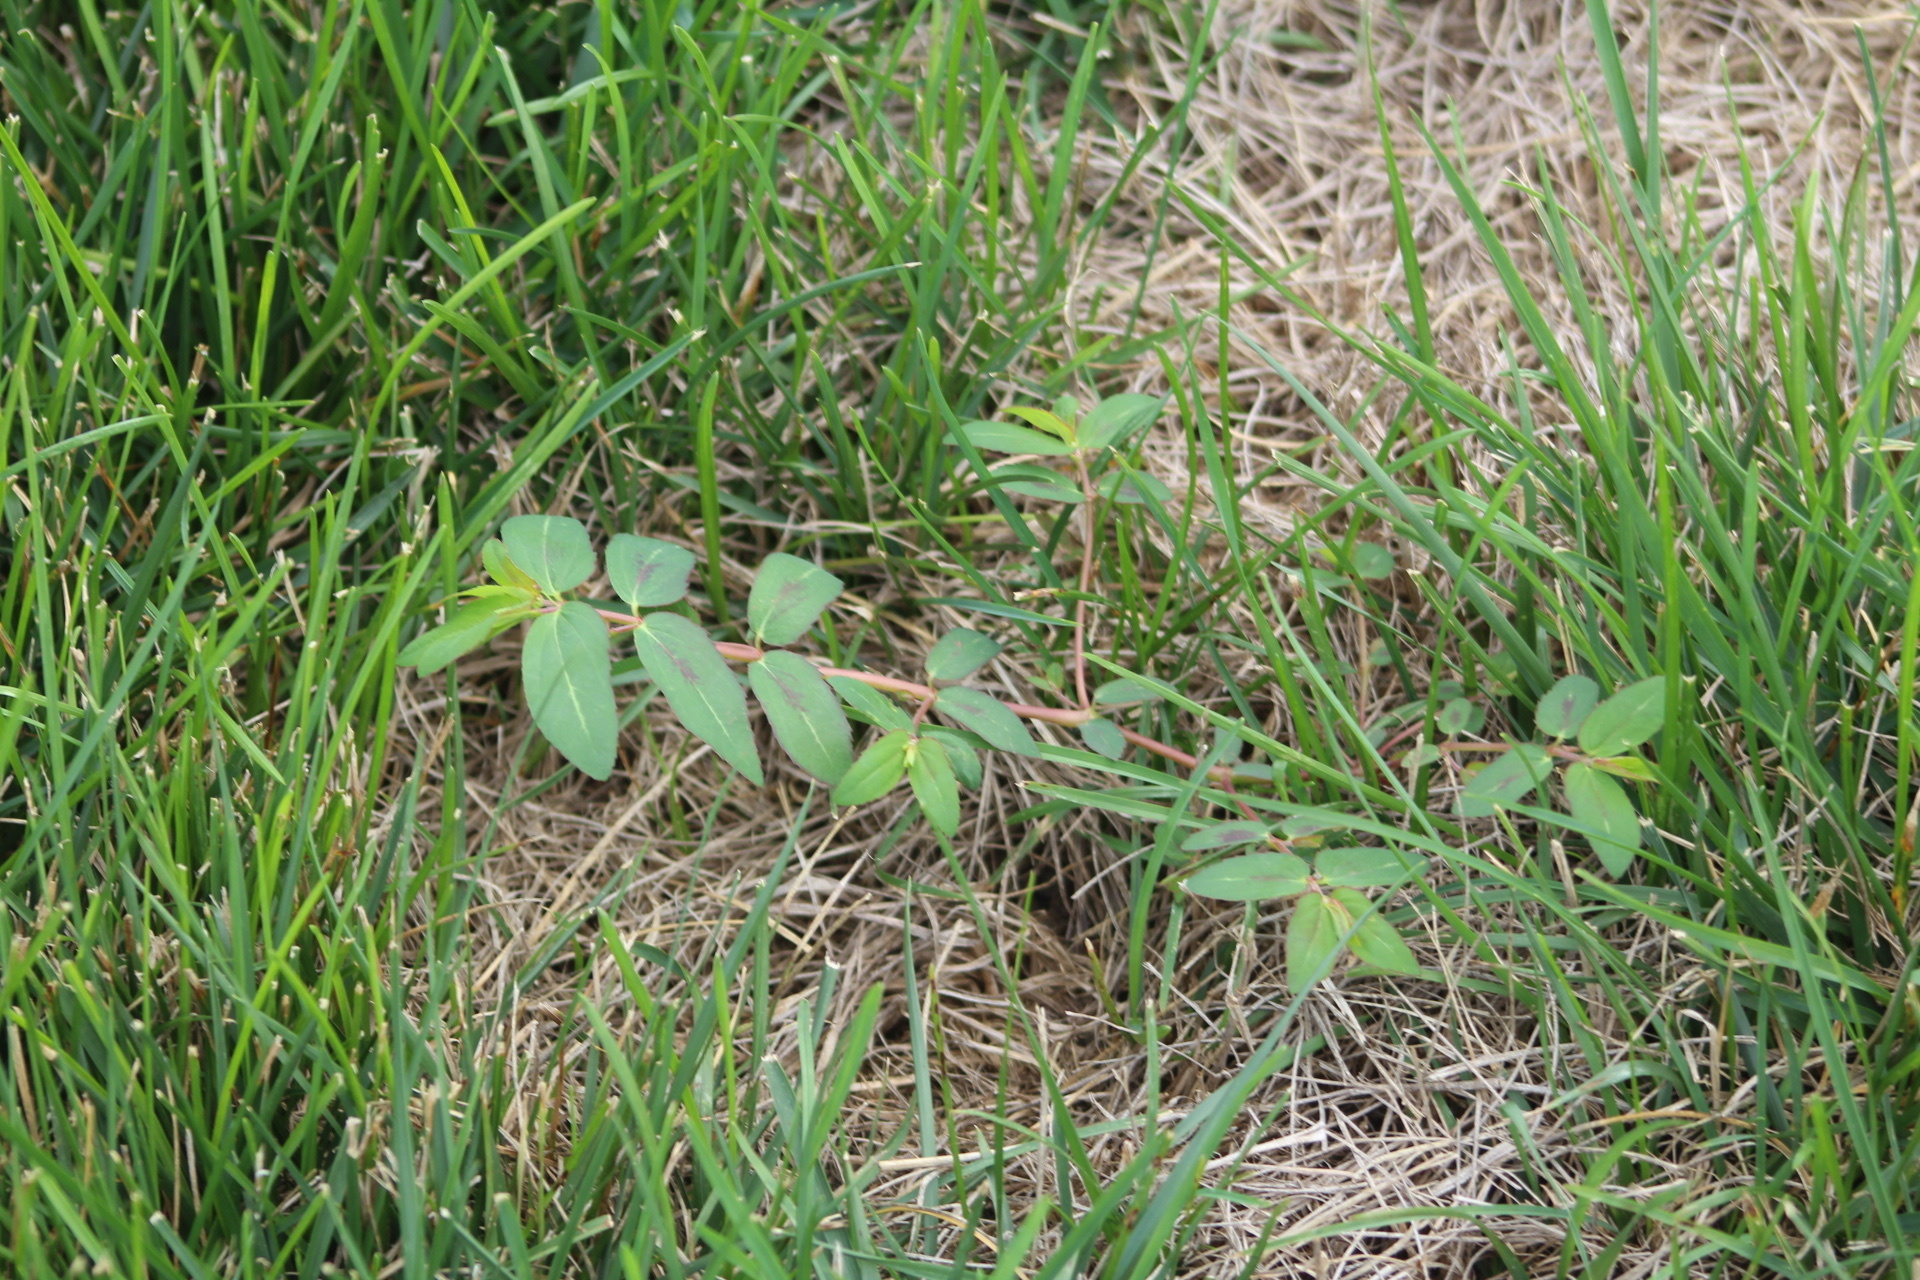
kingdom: Plantae
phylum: Tracheophyta
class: Magnoliopsida
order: Malpighiales
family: Euphorbiaceae
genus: Euphorbia
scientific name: Euphorbia nutans
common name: Eyebane
